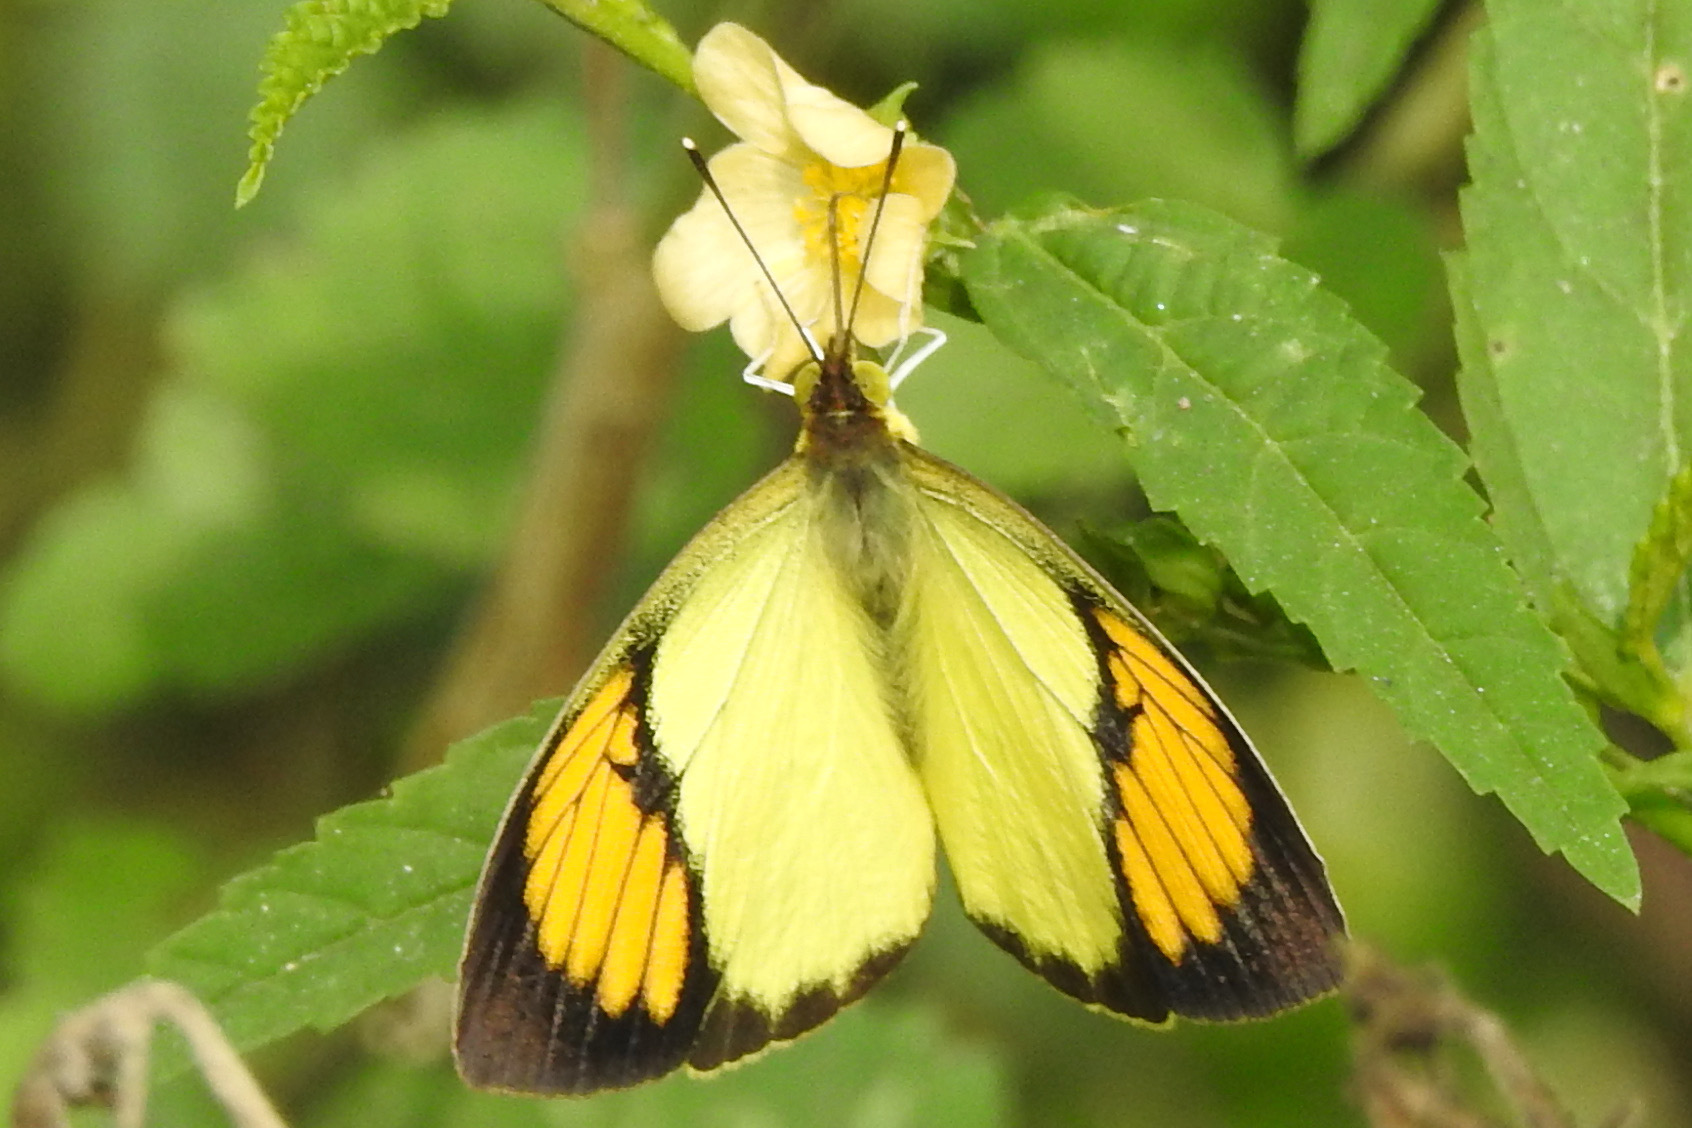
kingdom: Animalia
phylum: Arthropoda
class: Insecta
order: Lepidoptera
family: Pieridae
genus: Ixias
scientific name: Ixias pyrene
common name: Yellow orange tip
